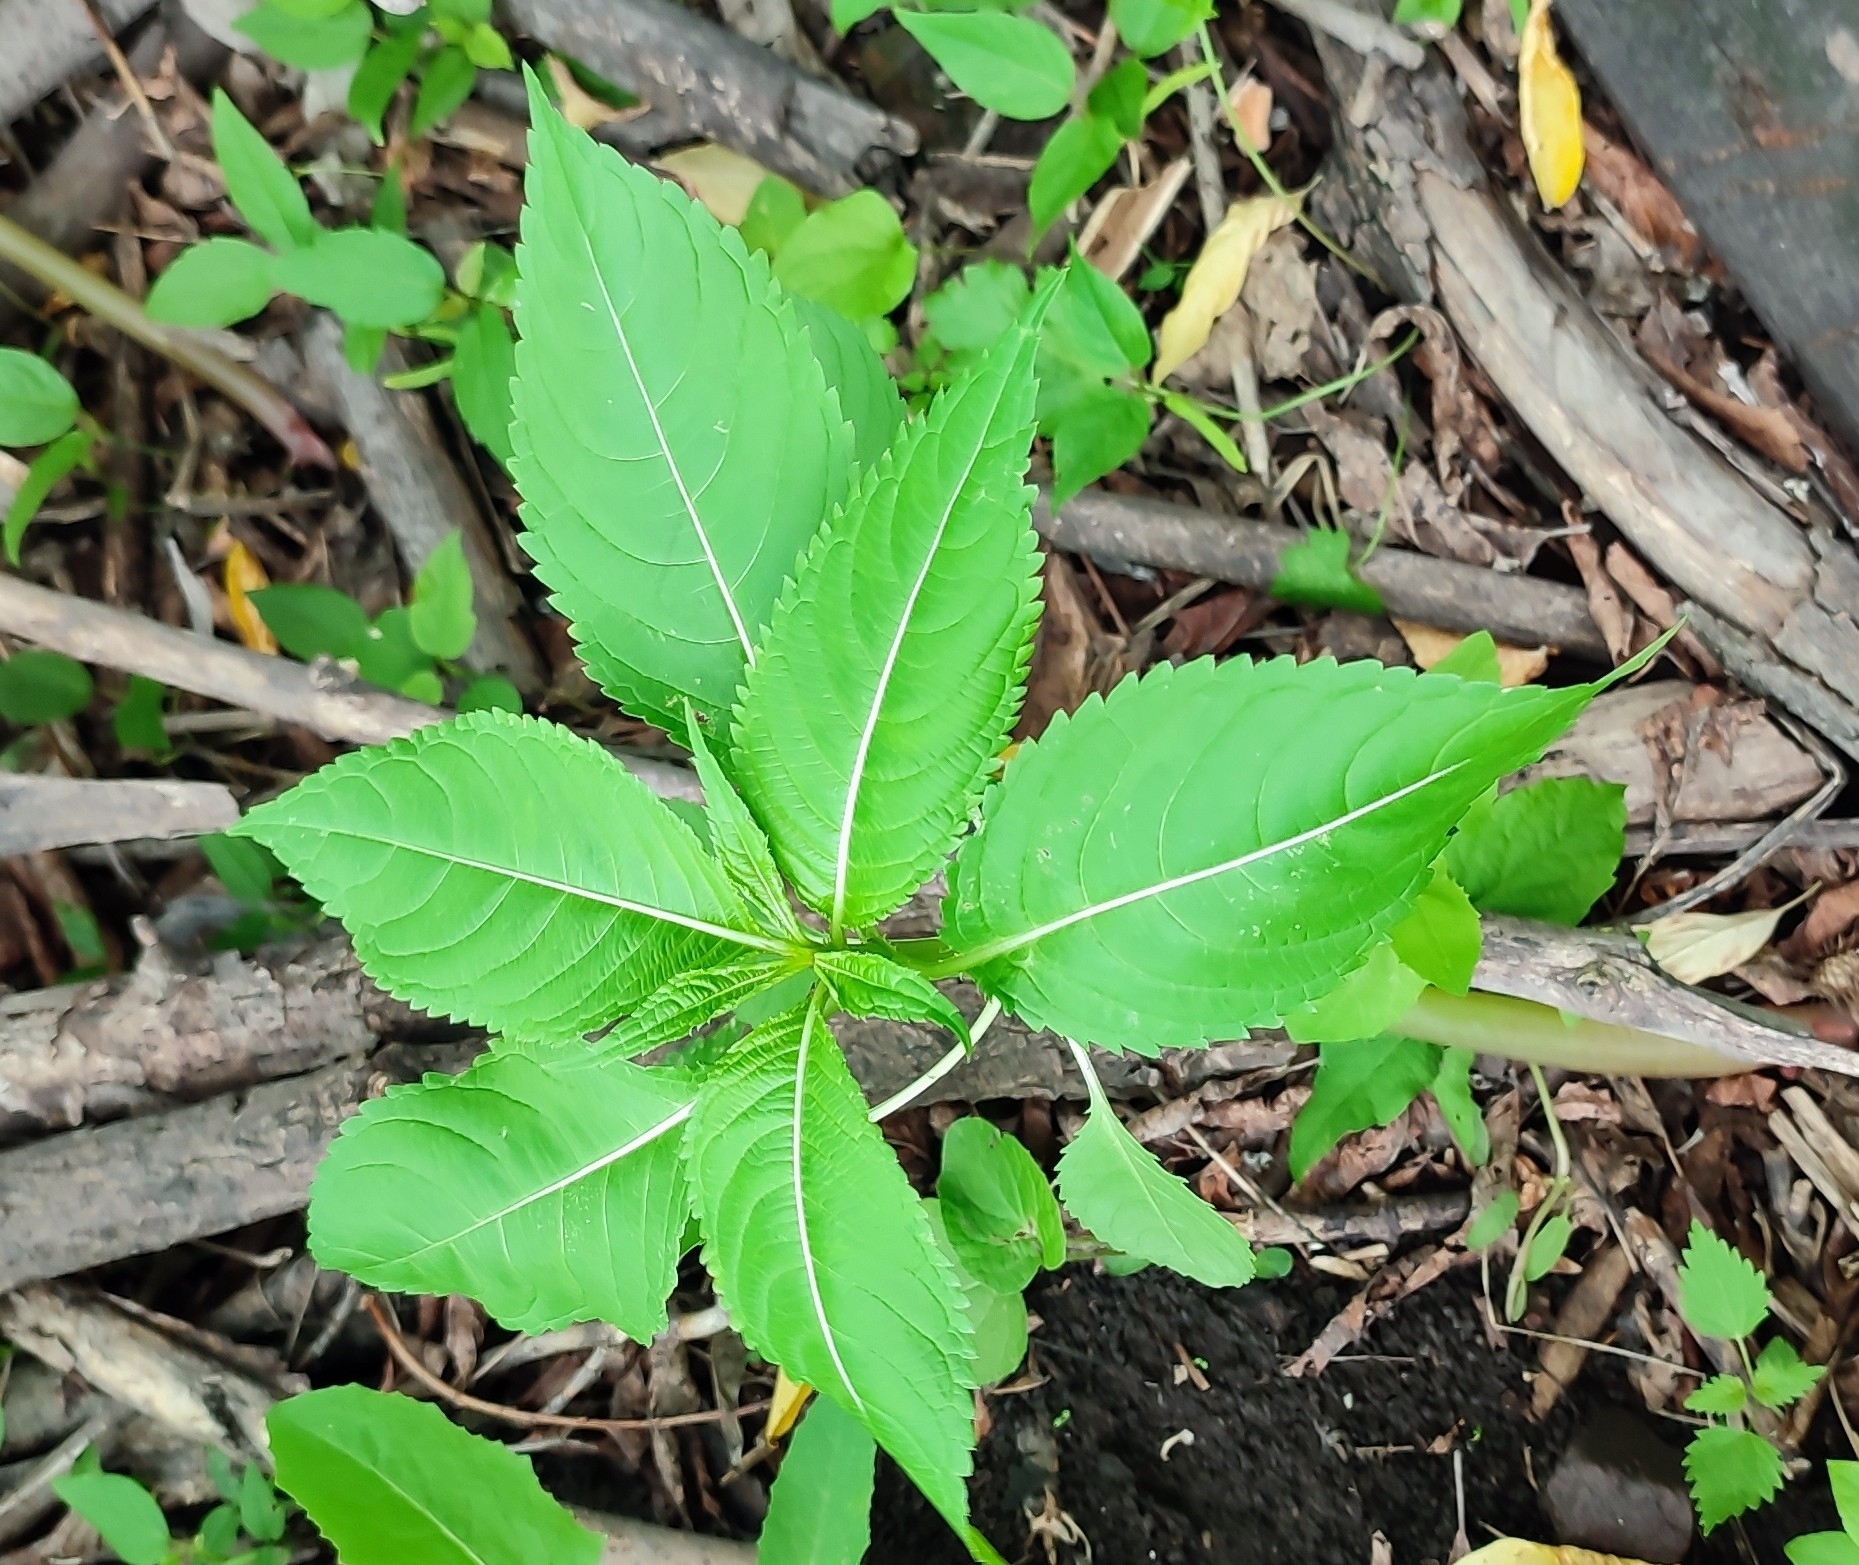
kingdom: Plantae
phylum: Tracheophyta
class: Magnoliopsida
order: Ericales
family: Balsaminaceae
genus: Impatiens
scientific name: Impatiens glandulifera
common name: Himalayan balsam
